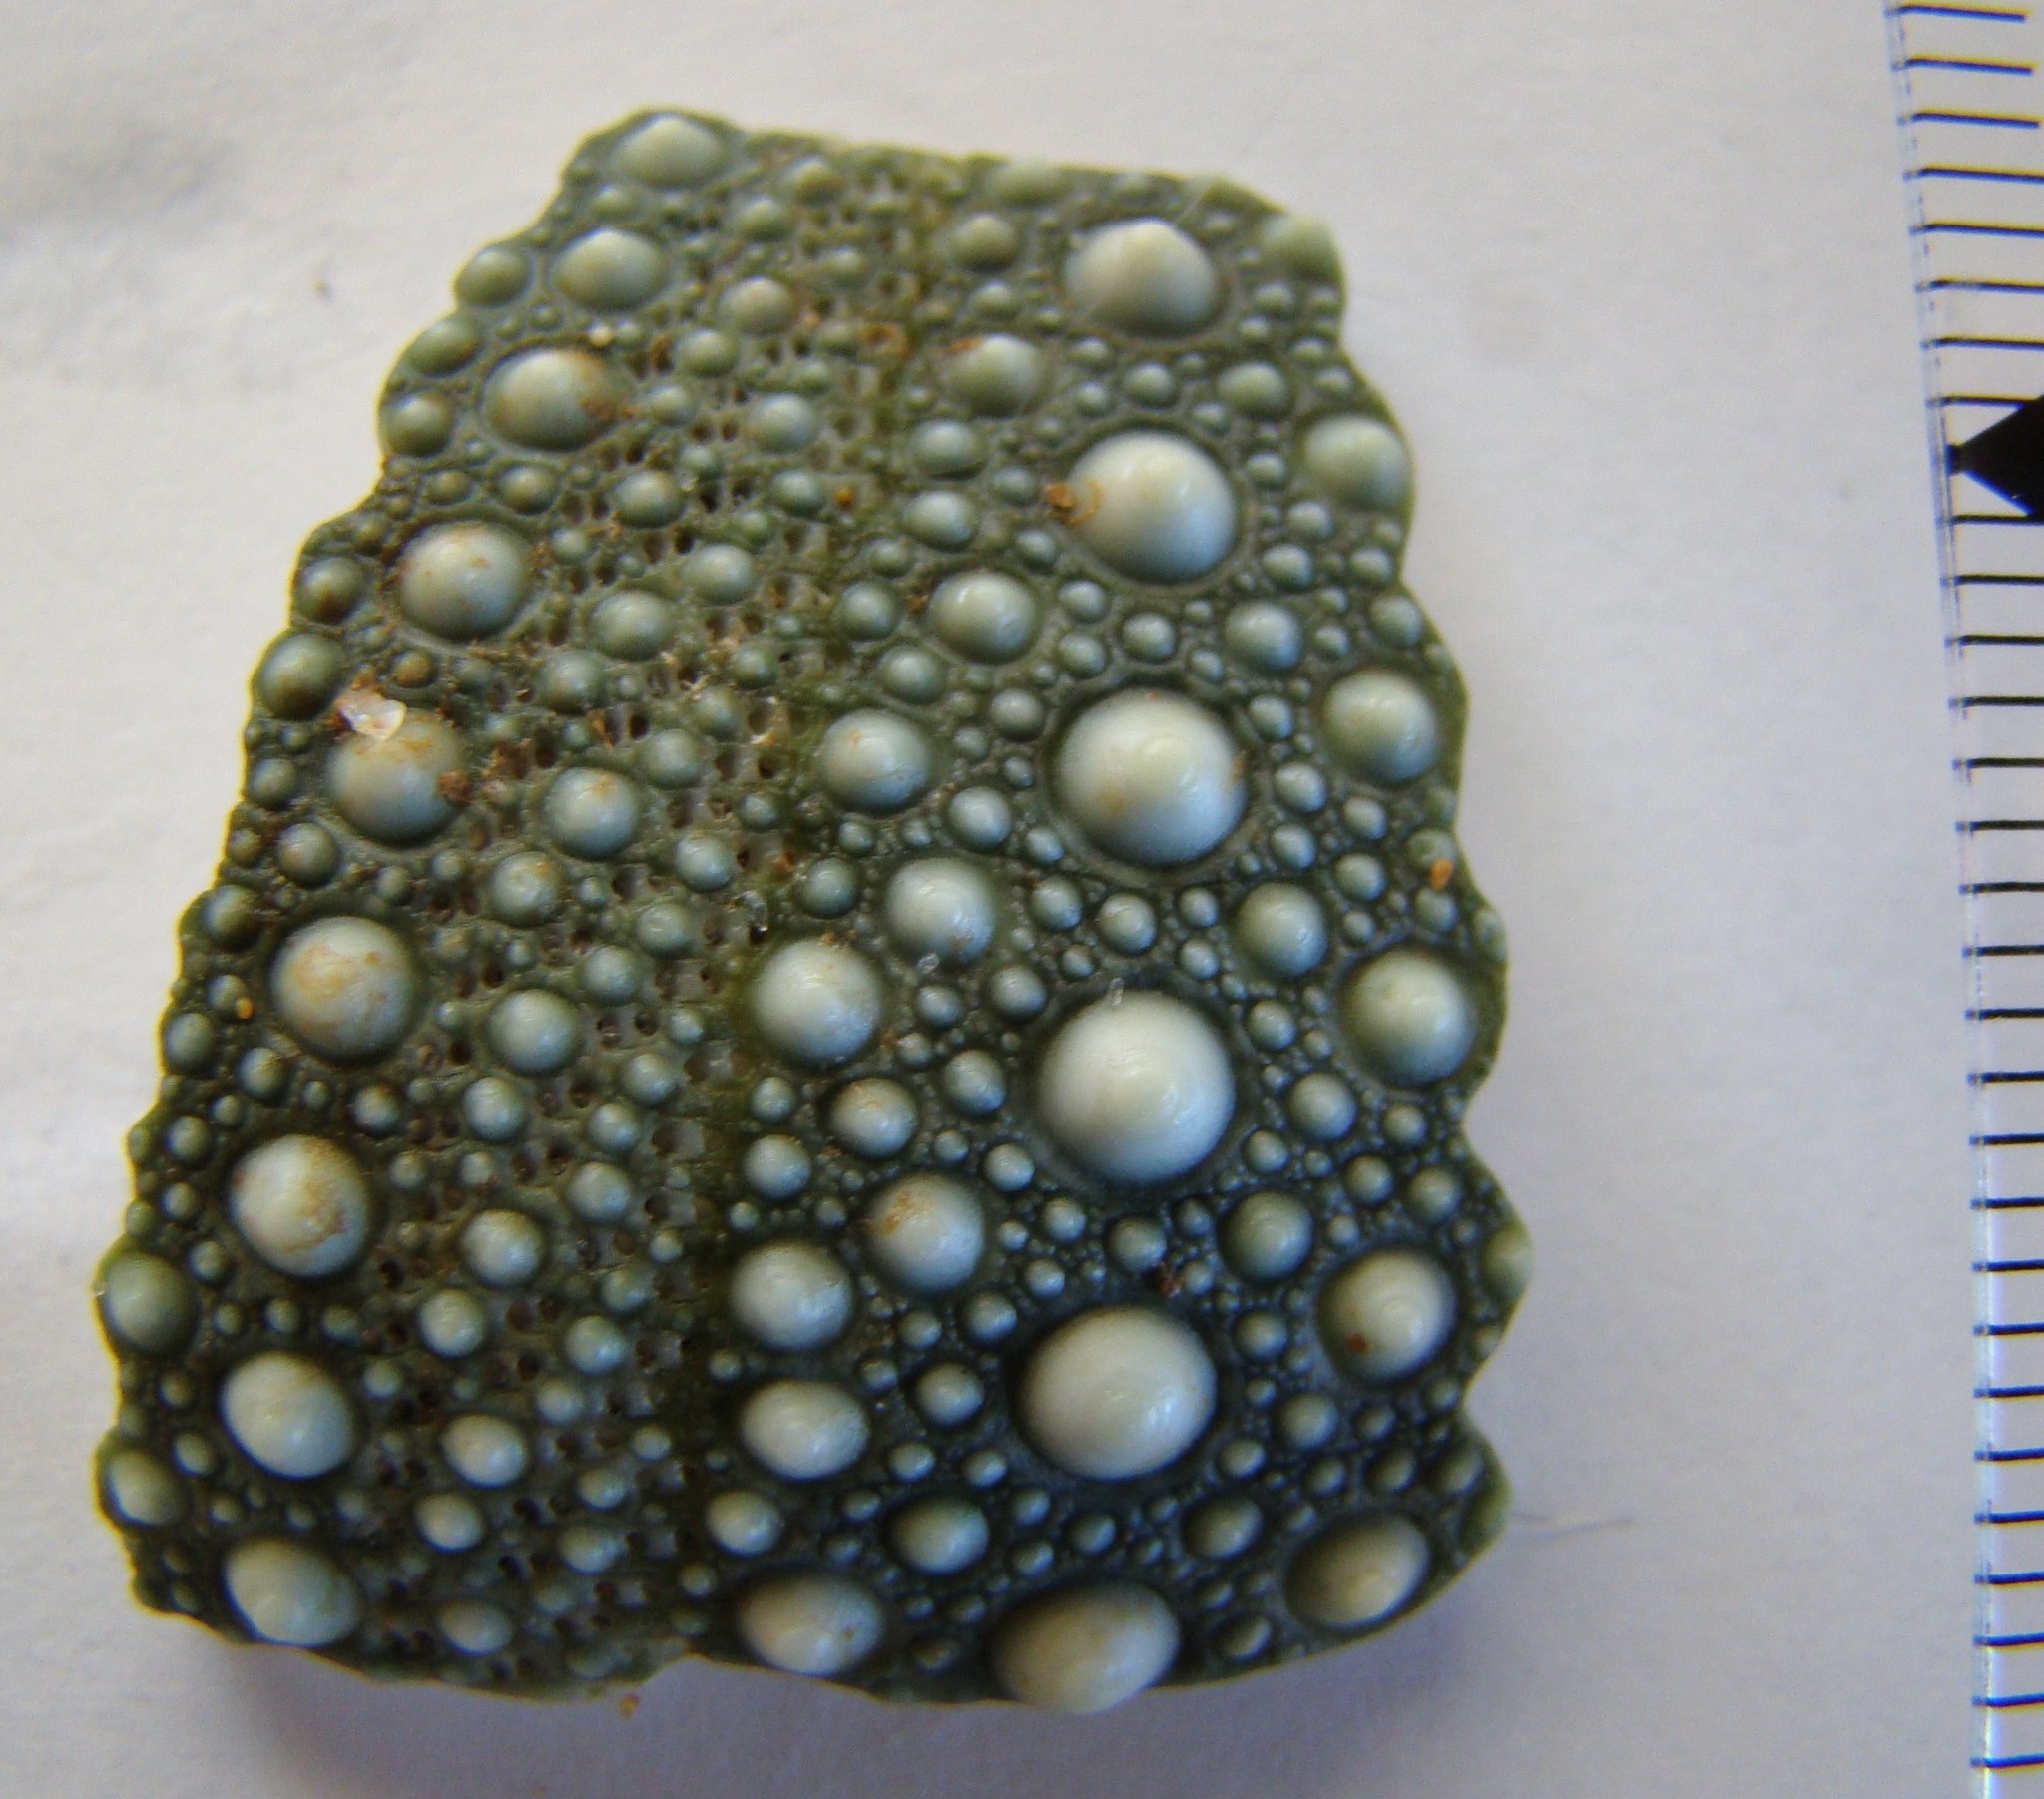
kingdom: Animalia
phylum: Echinodermata
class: Echinoidea
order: Camarodonta
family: Echinometridae
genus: Evechinus
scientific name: Evechinus chloroticus
